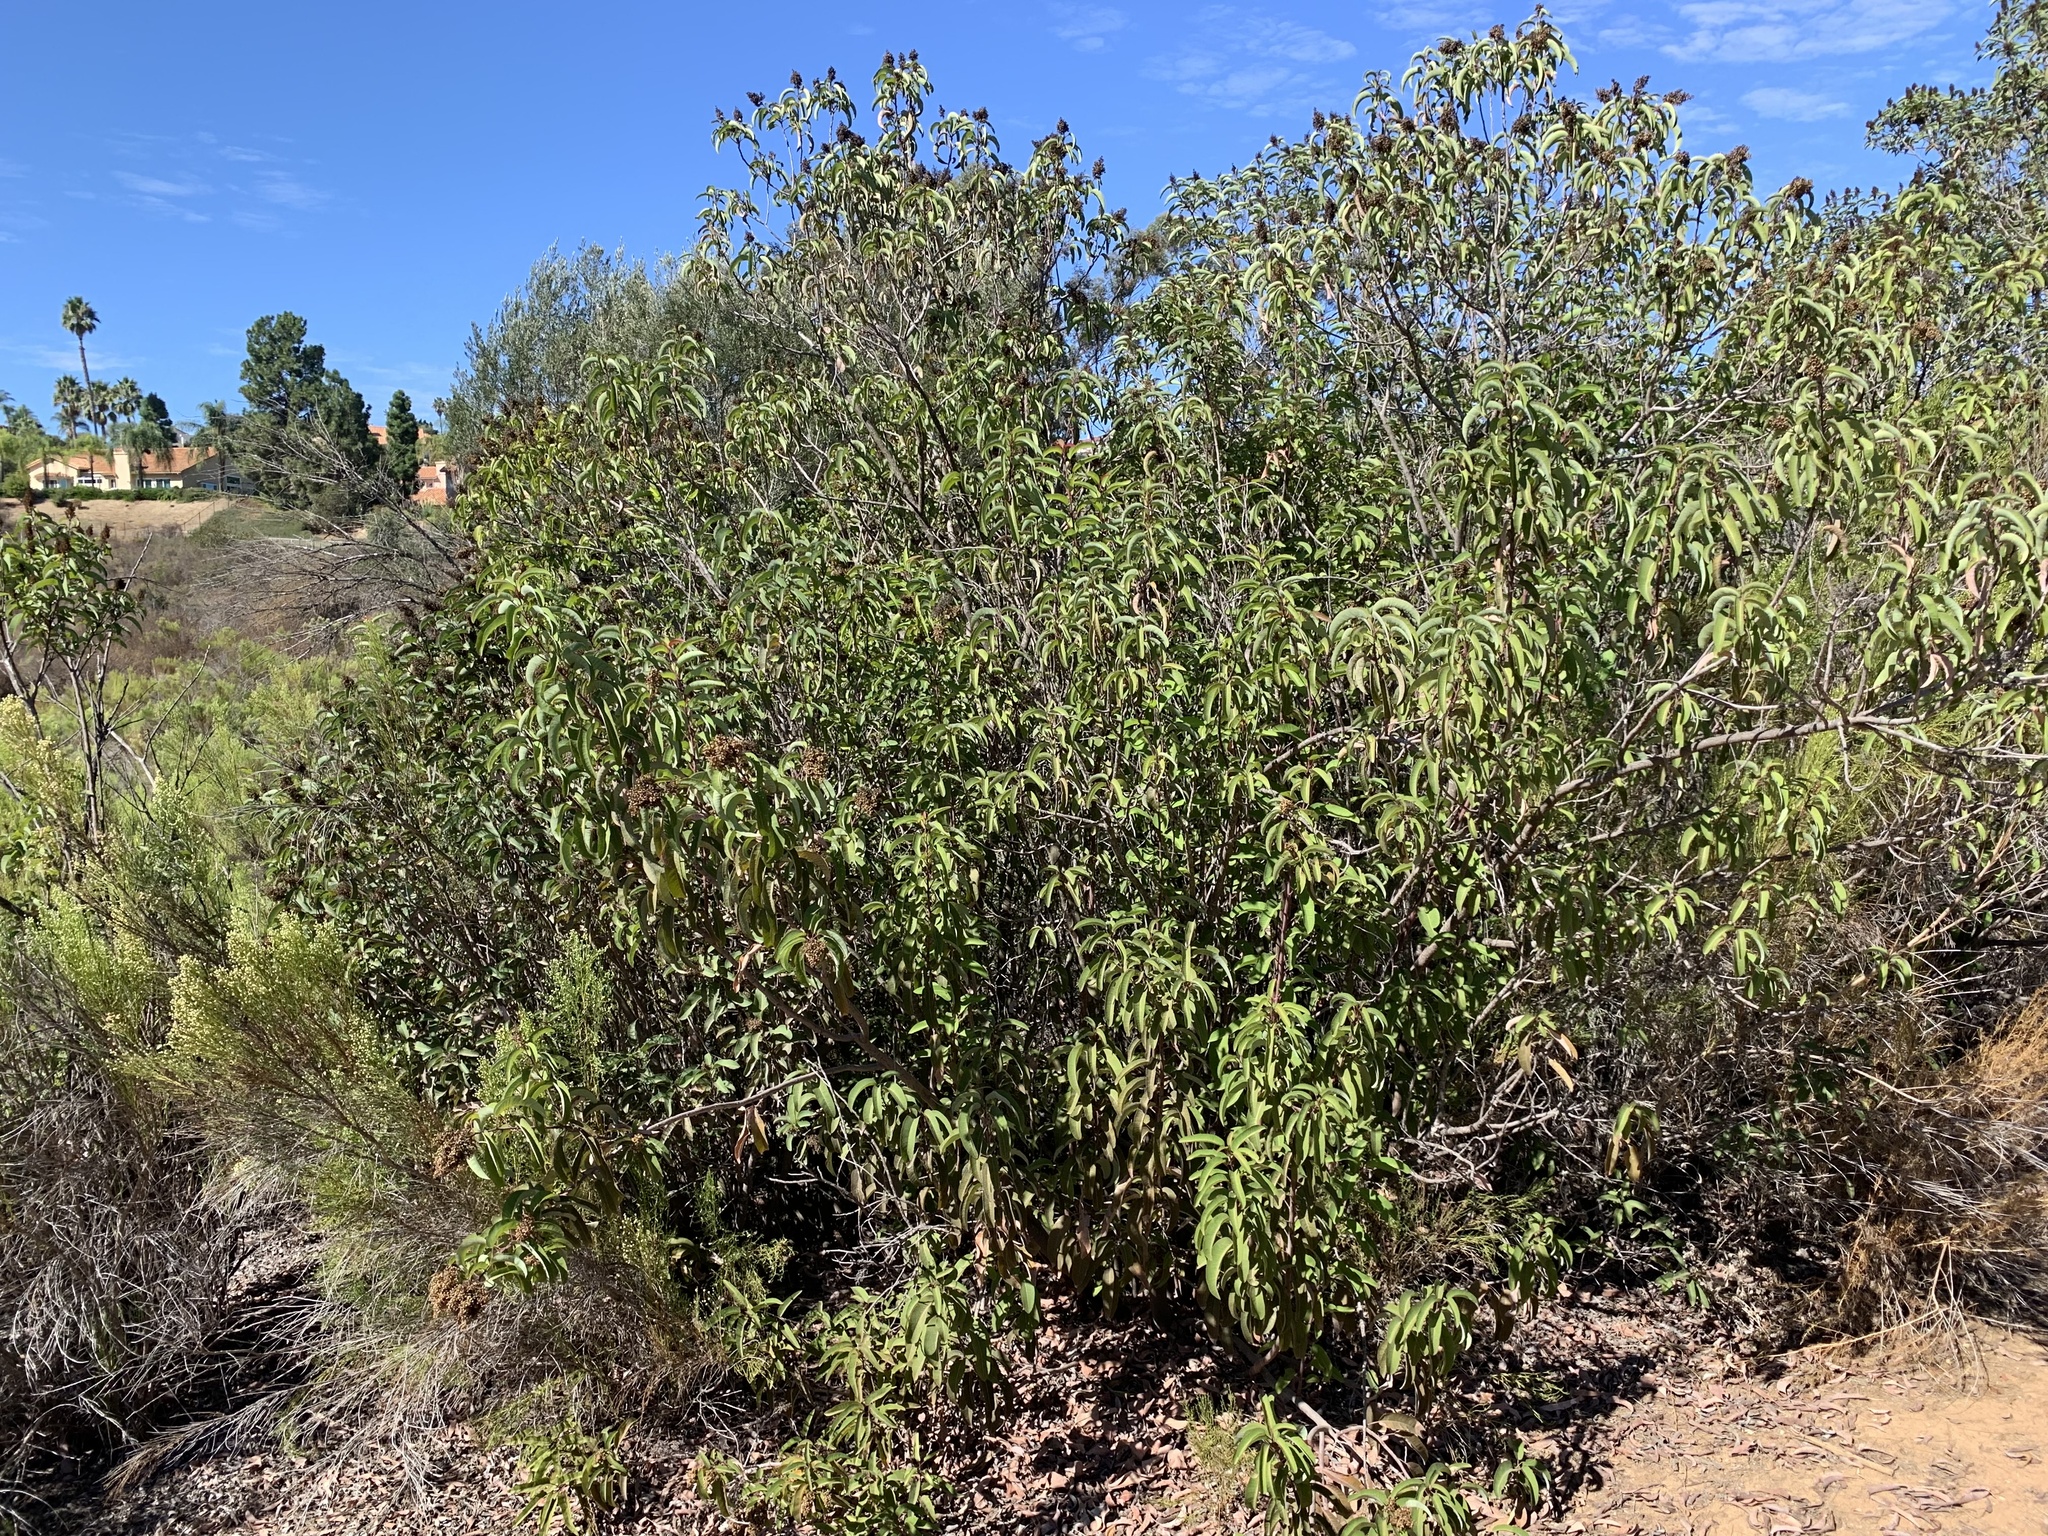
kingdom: Plantae
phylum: Tracheophyta
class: Magnoliopsida
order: Sapindales
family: Anacardiaceae
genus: Malosma
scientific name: Malosma laurina
